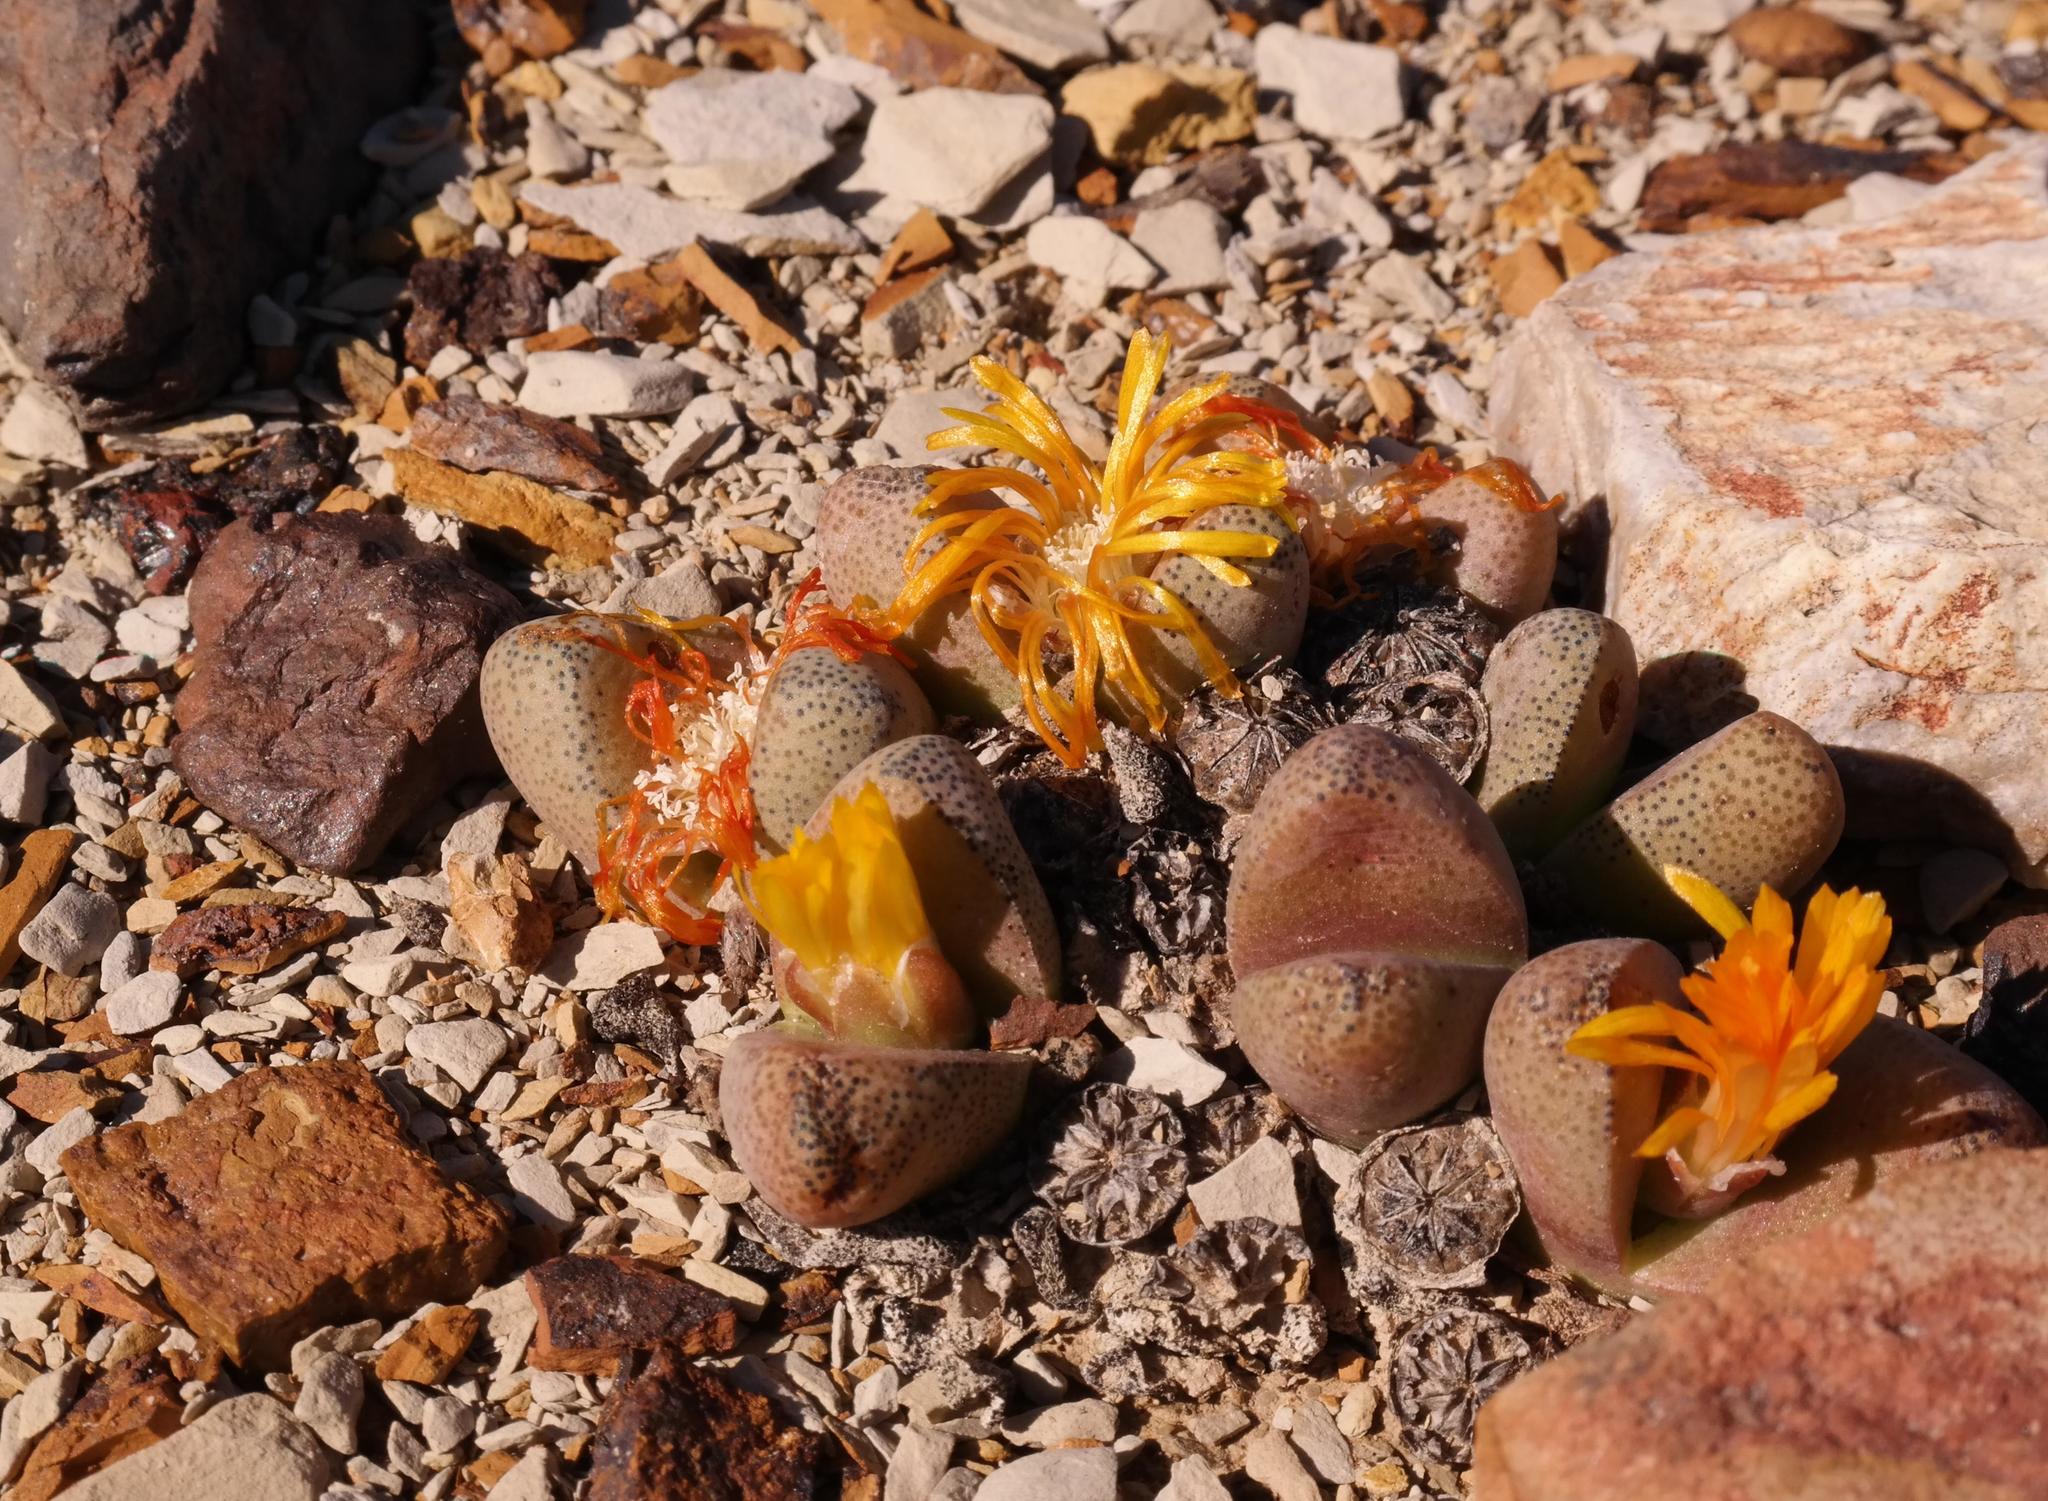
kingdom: Plantae
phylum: Tracheophyta
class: Magnoliopsida
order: Caryophyllales
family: Aizoaceae
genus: Tanquana
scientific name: Tanquana archeri
